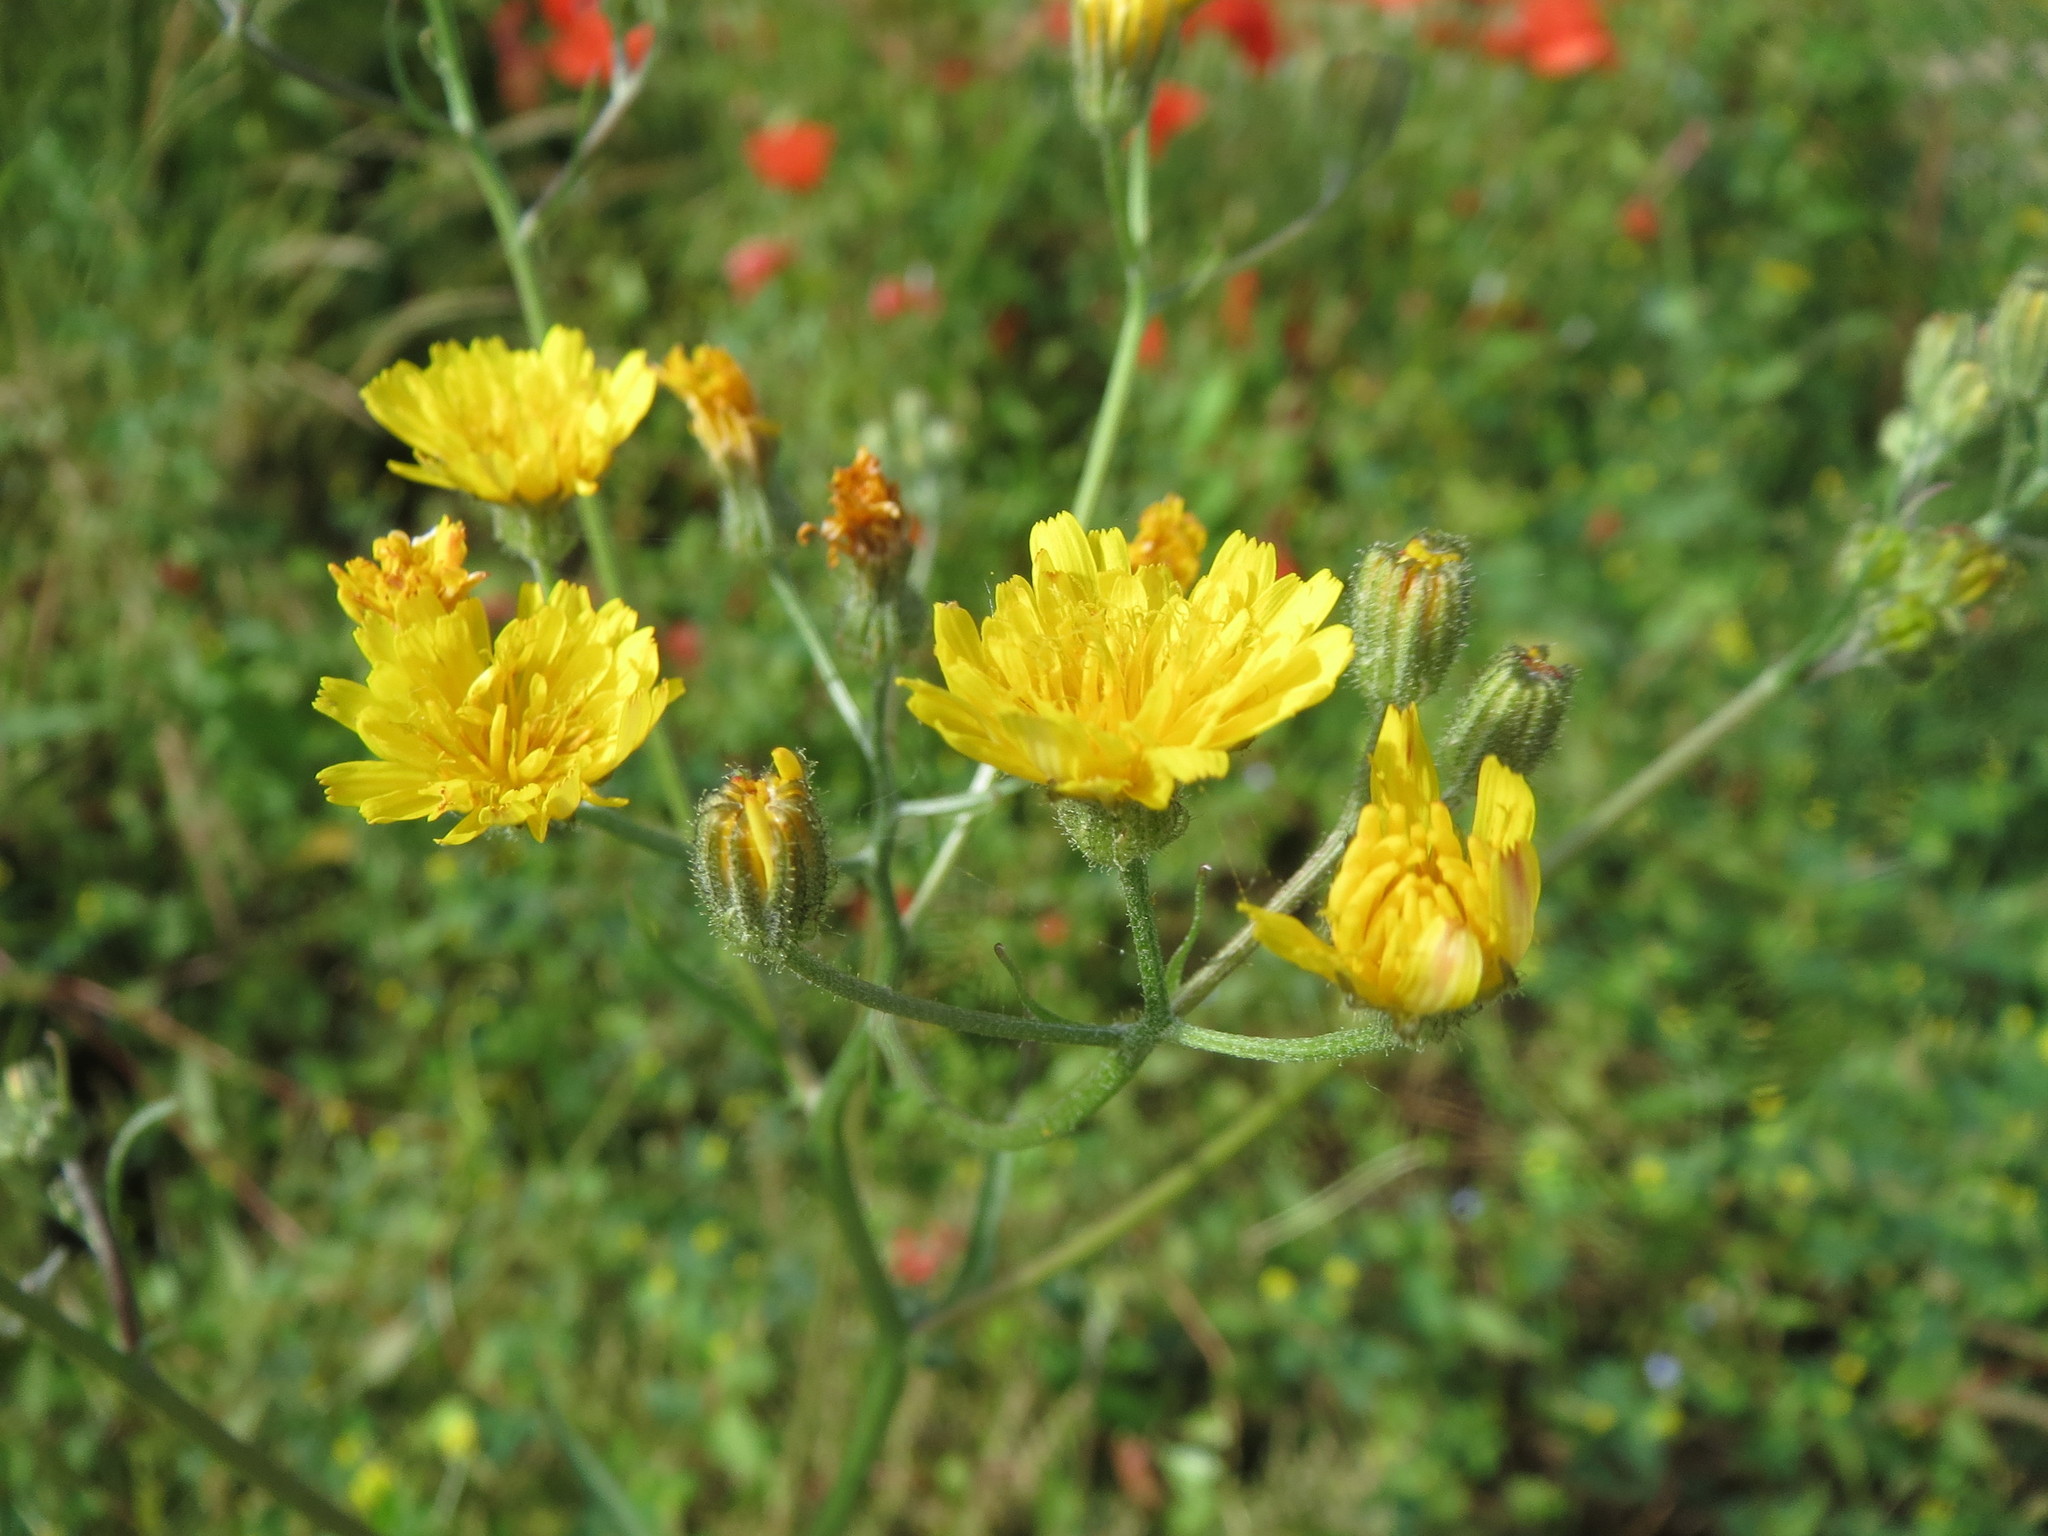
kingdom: Plantae
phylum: Tracheophyta
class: Magnoliopsida
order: Asterales
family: Asteraceae
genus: Lapsana
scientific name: Lapsana communis
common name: Nipplewort
